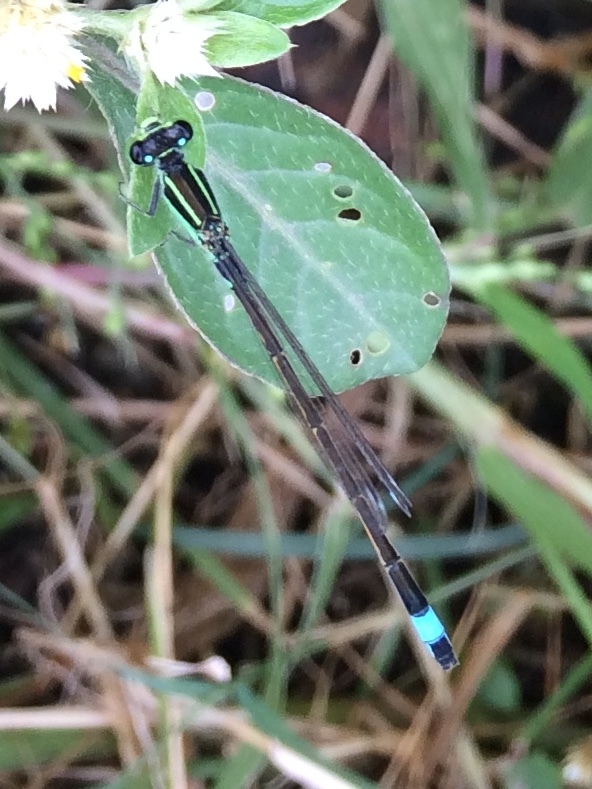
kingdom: Animalia
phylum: Arthropoda
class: Insecta
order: Odonata
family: Coenagrionidae
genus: Ischnura
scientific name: Ischnura senegalensis
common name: Tropical bluetail
